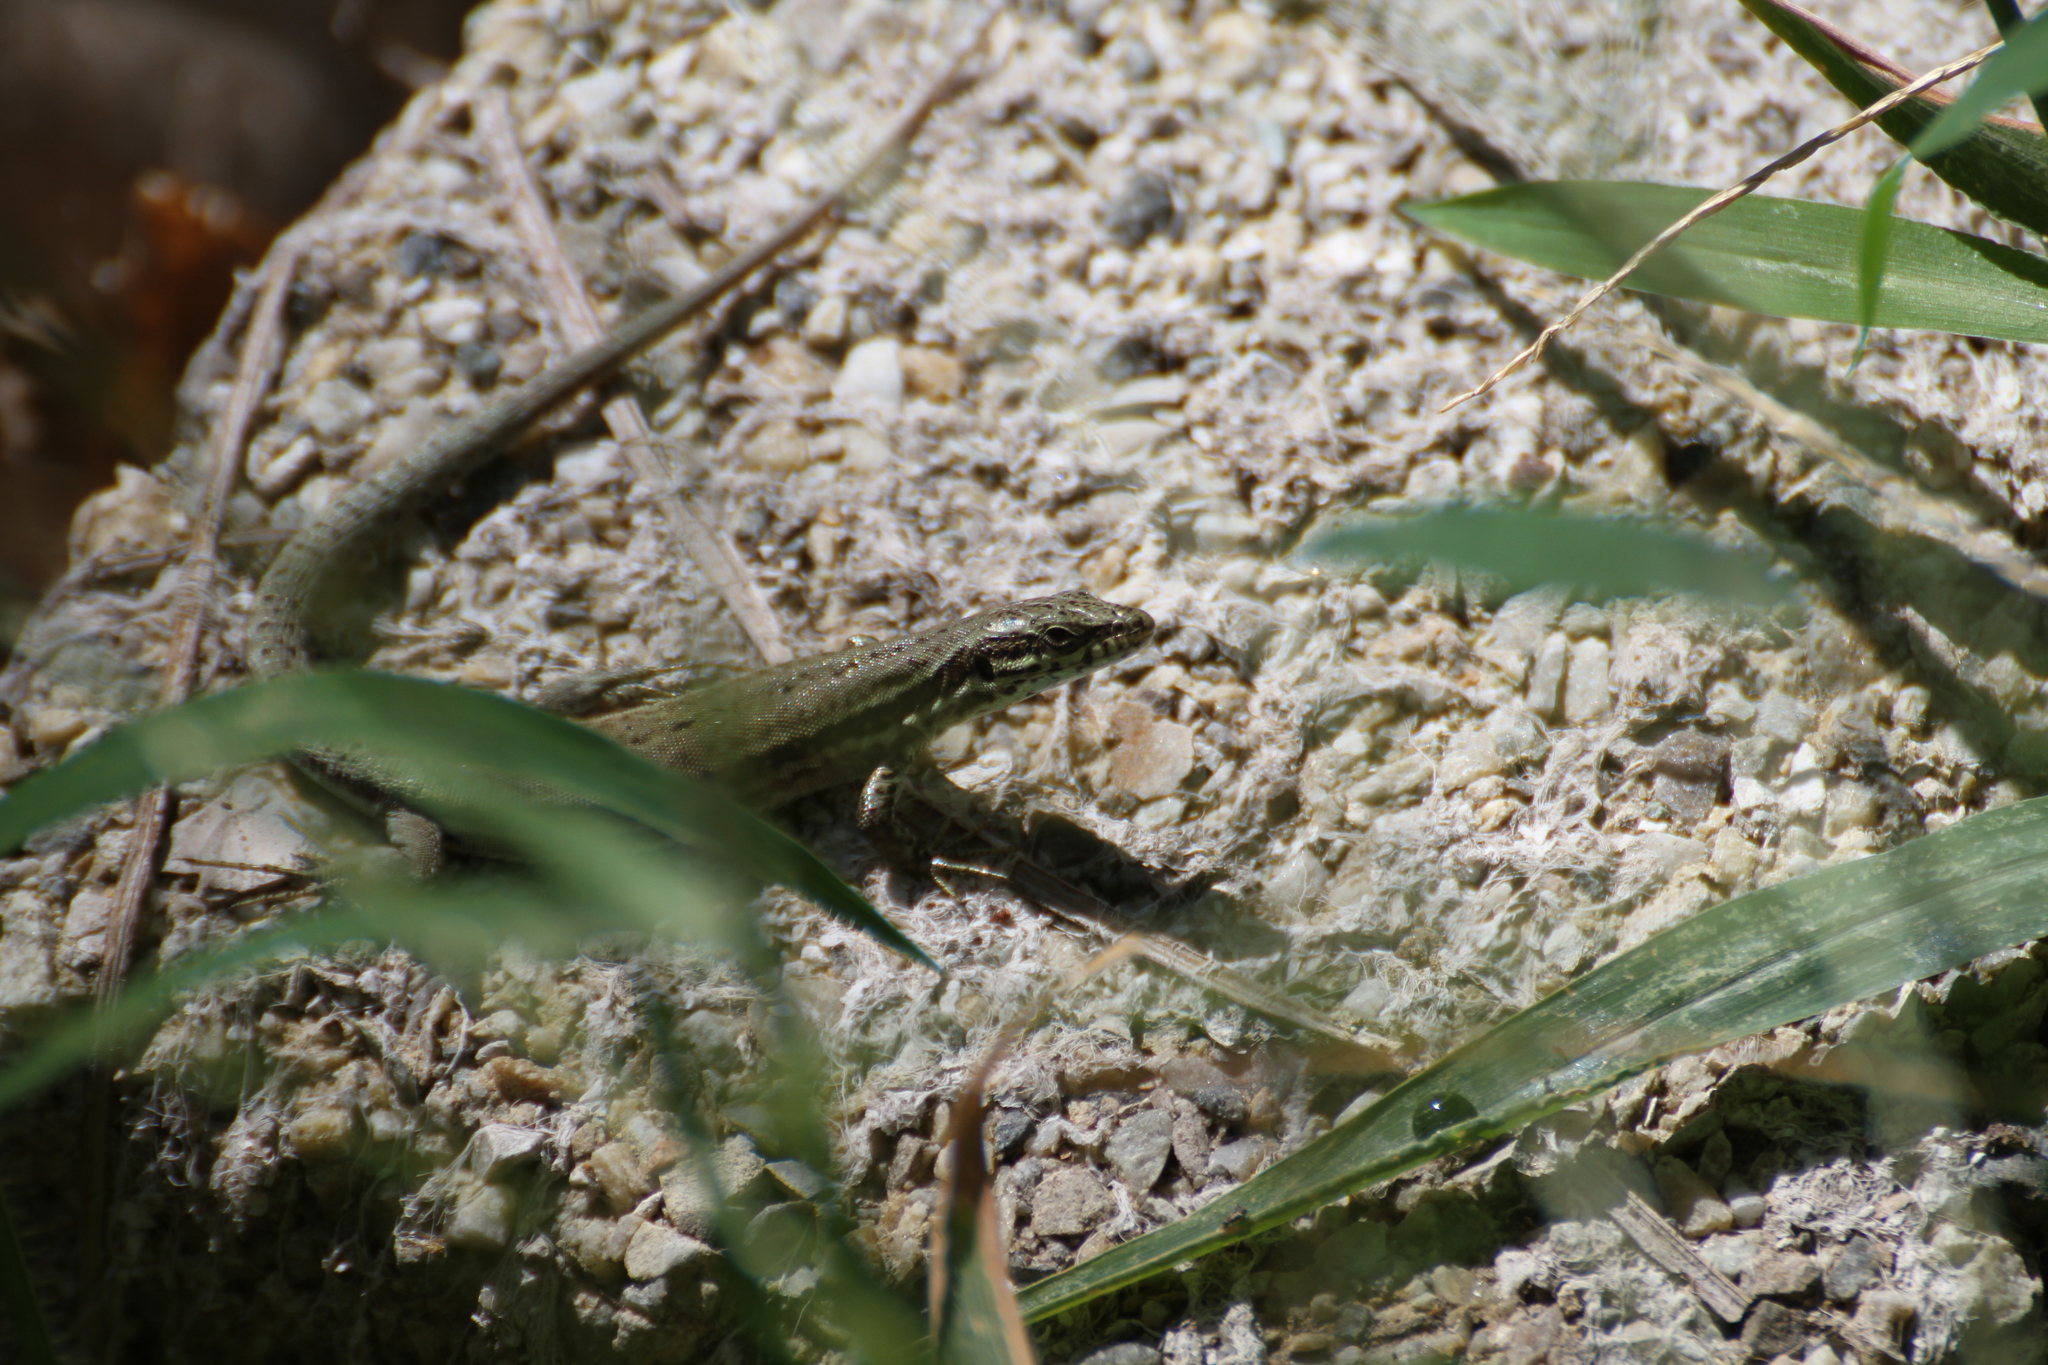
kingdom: Animalia
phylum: Chordata
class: Squamata
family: Lacertidae
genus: Podarcis
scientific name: Podarcis muralis
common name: Common wall lizard
